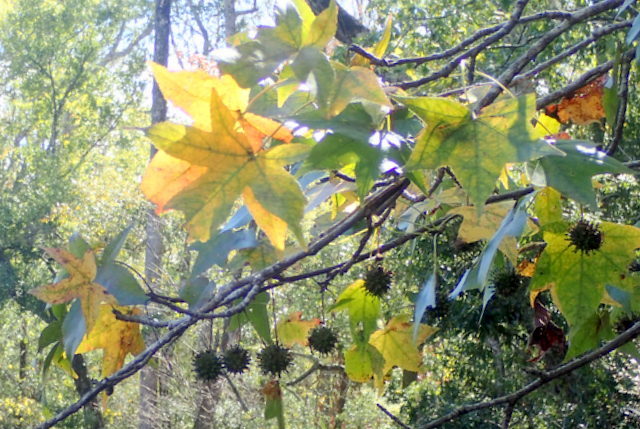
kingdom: Plantae
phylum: Tracheophyta
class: Magnoliopsida
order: Saxifragales
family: Altingiaceae
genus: Liquidambar
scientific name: Liquidambar styraciflua
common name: Sweet gum
